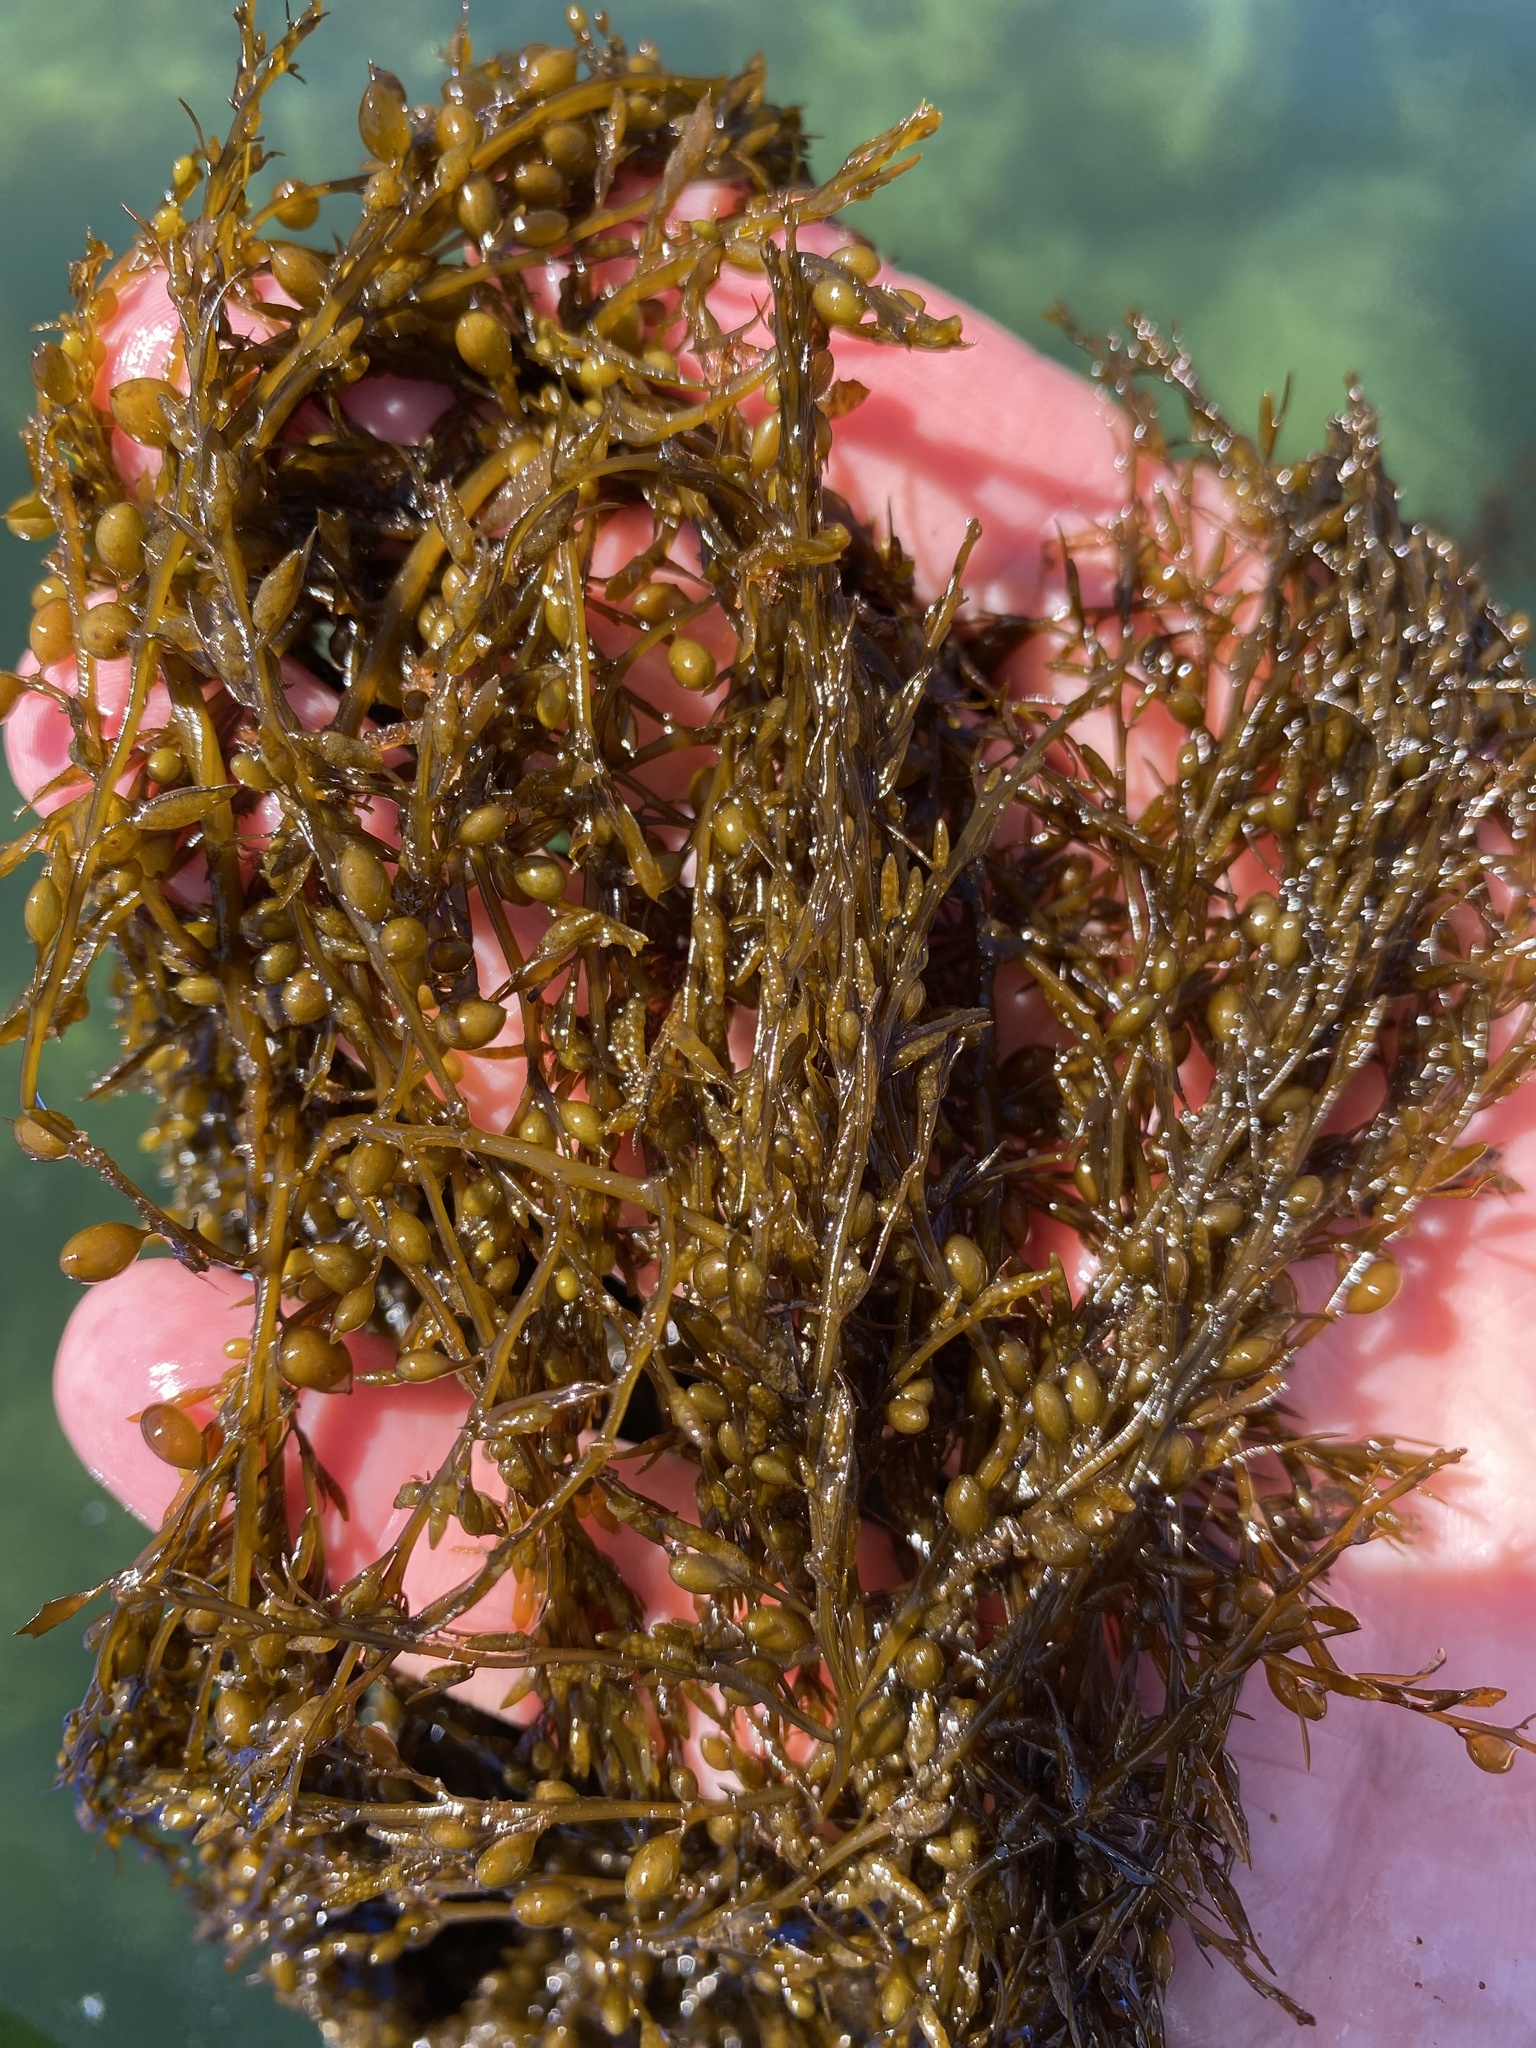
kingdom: Chromista
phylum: Ochrophyta
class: Phaeophyceae
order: Fucales
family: Sargassaceae
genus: Sargassum
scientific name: Sargassum muticum
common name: Japweed
